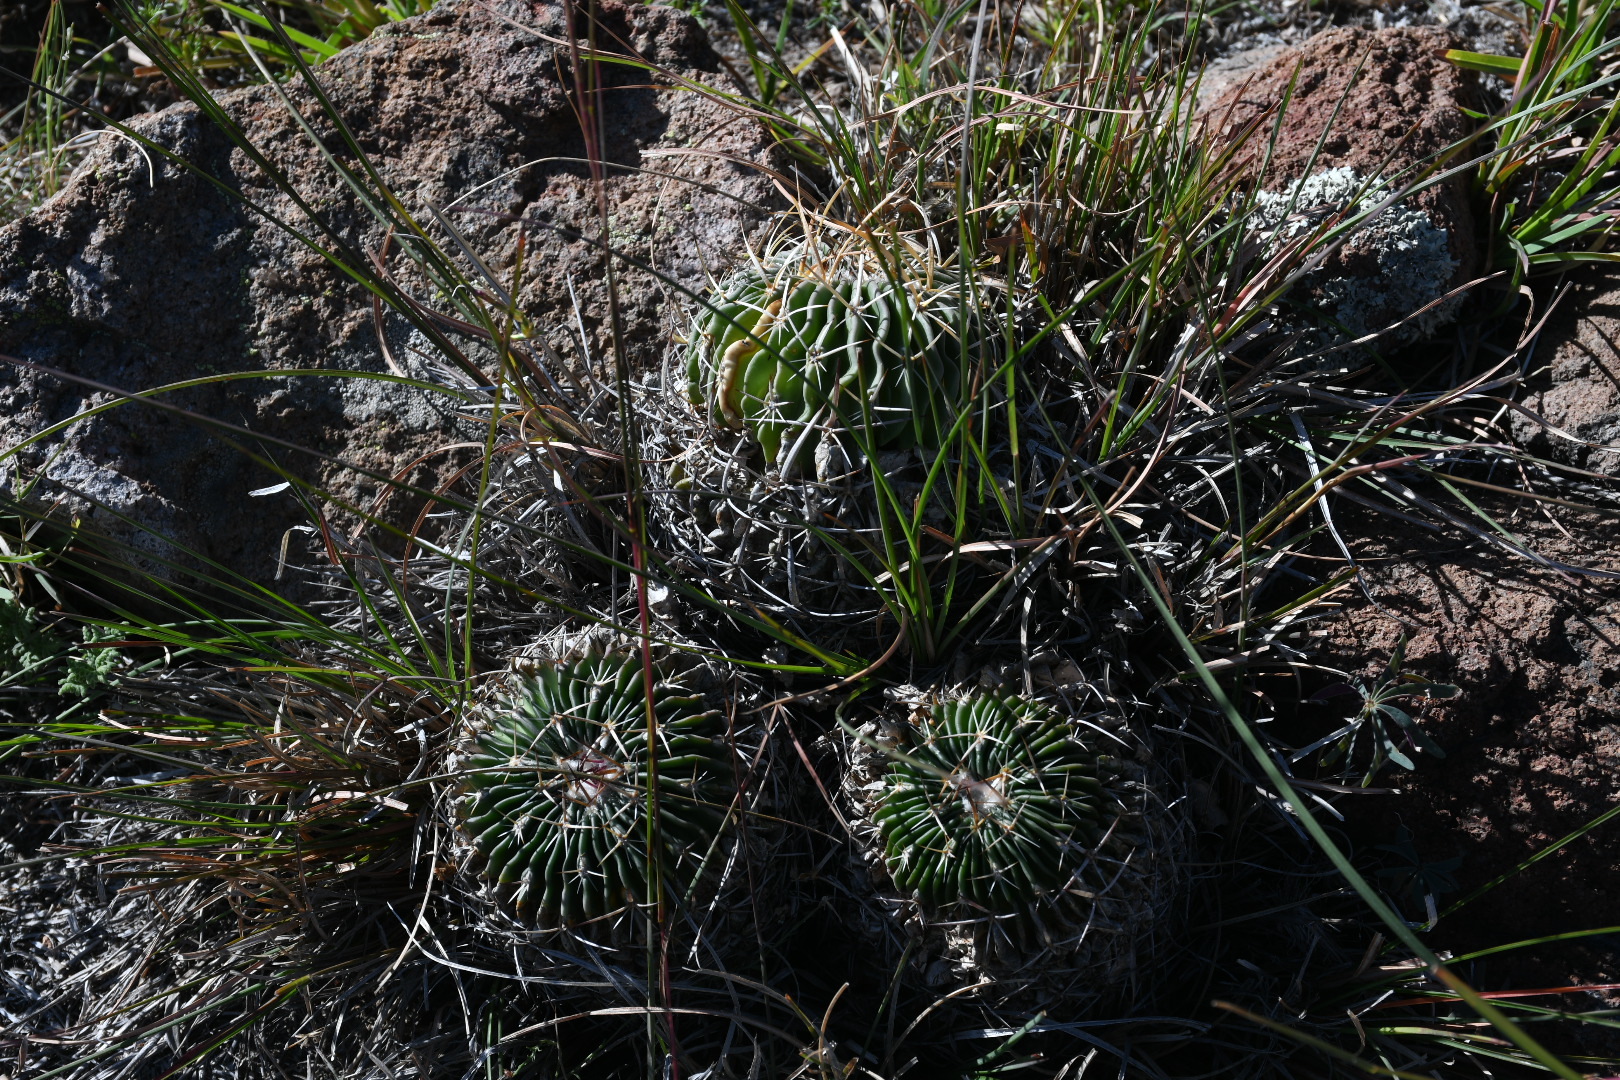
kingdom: Plantae
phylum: Tracheophyta
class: Magnoliopsida
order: Caryophyllales
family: Cactaceae
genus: Stenocactus
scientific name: Stenocactus phyllacanthus
